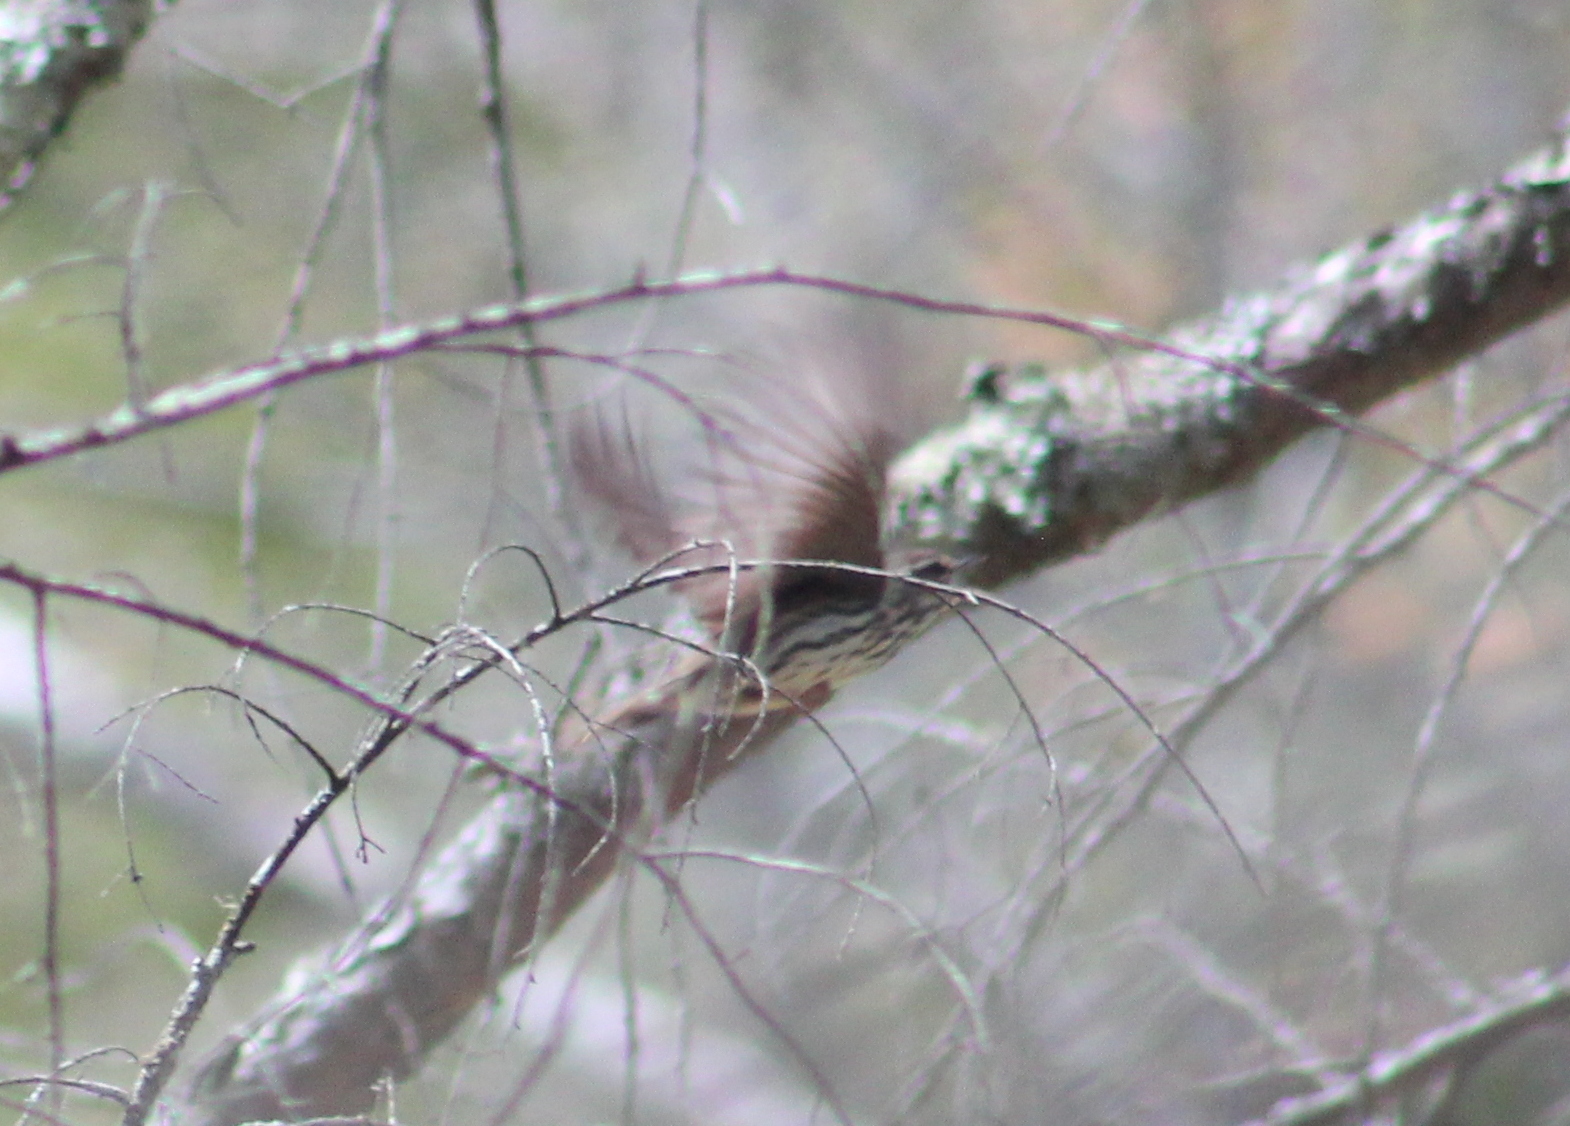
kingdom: Animalia
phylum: Chordata
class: Aves
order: Passeriformes
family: Parulidae
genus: Parkesia
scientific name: Parkesia noveboracensis
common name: Northern waterthrush
